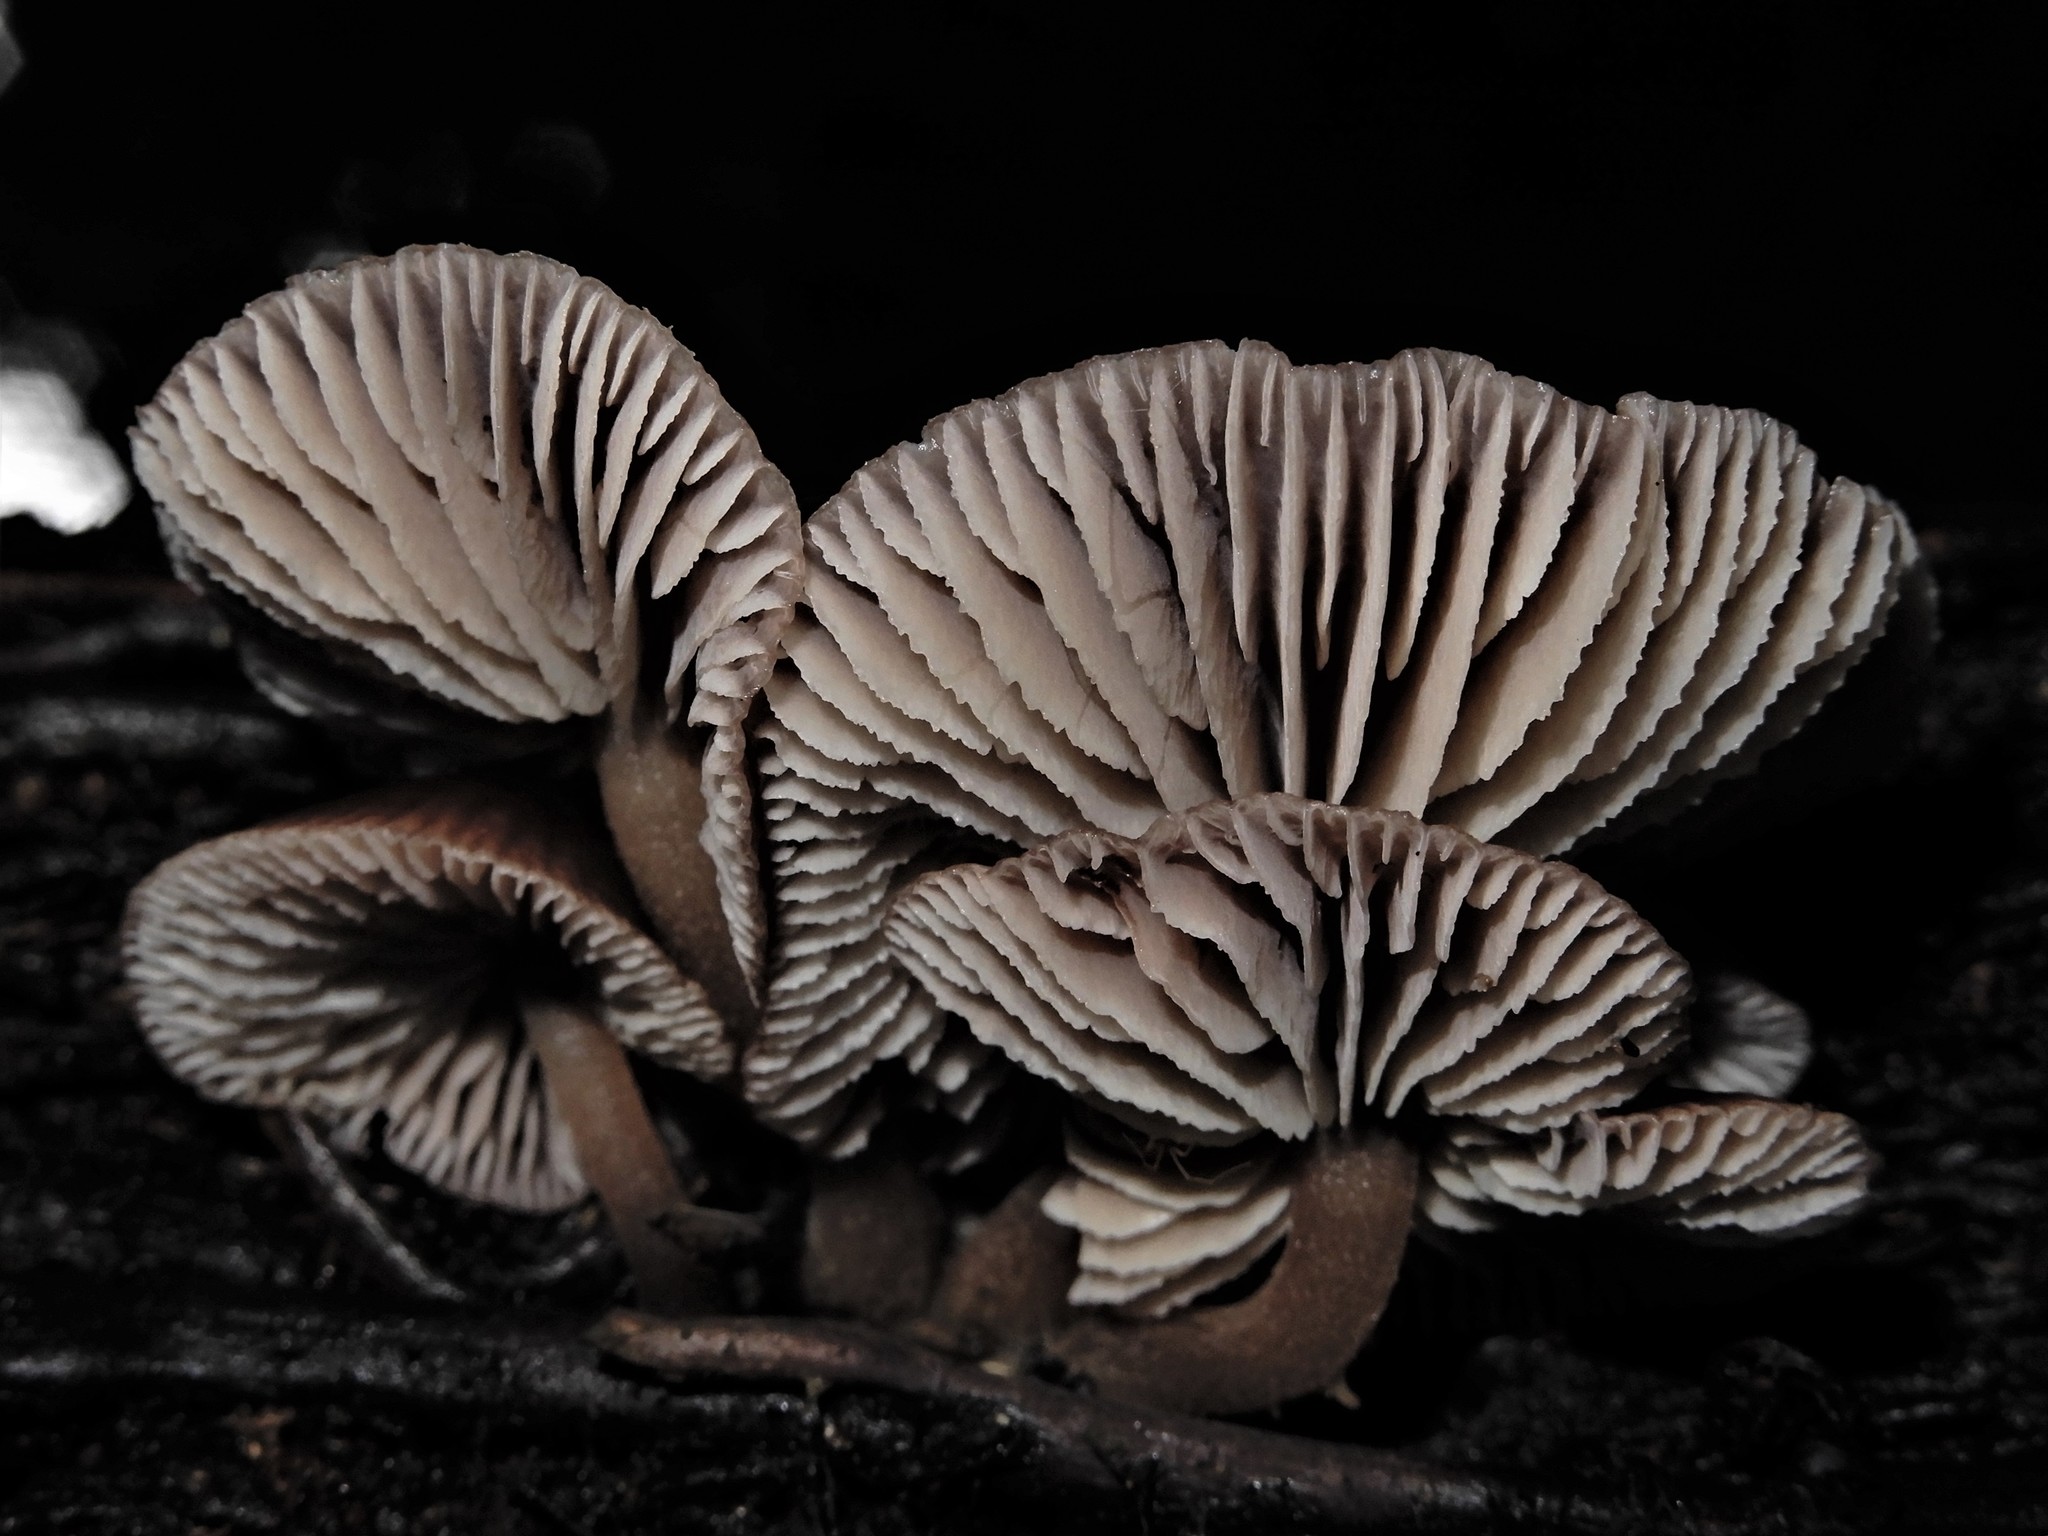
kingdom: Fungi
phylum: Basidiomycota
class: Agaricomycetes
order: Agaricales
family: Omphalotaceae
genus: Rhodocollybia
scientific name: Rhodocollybia
